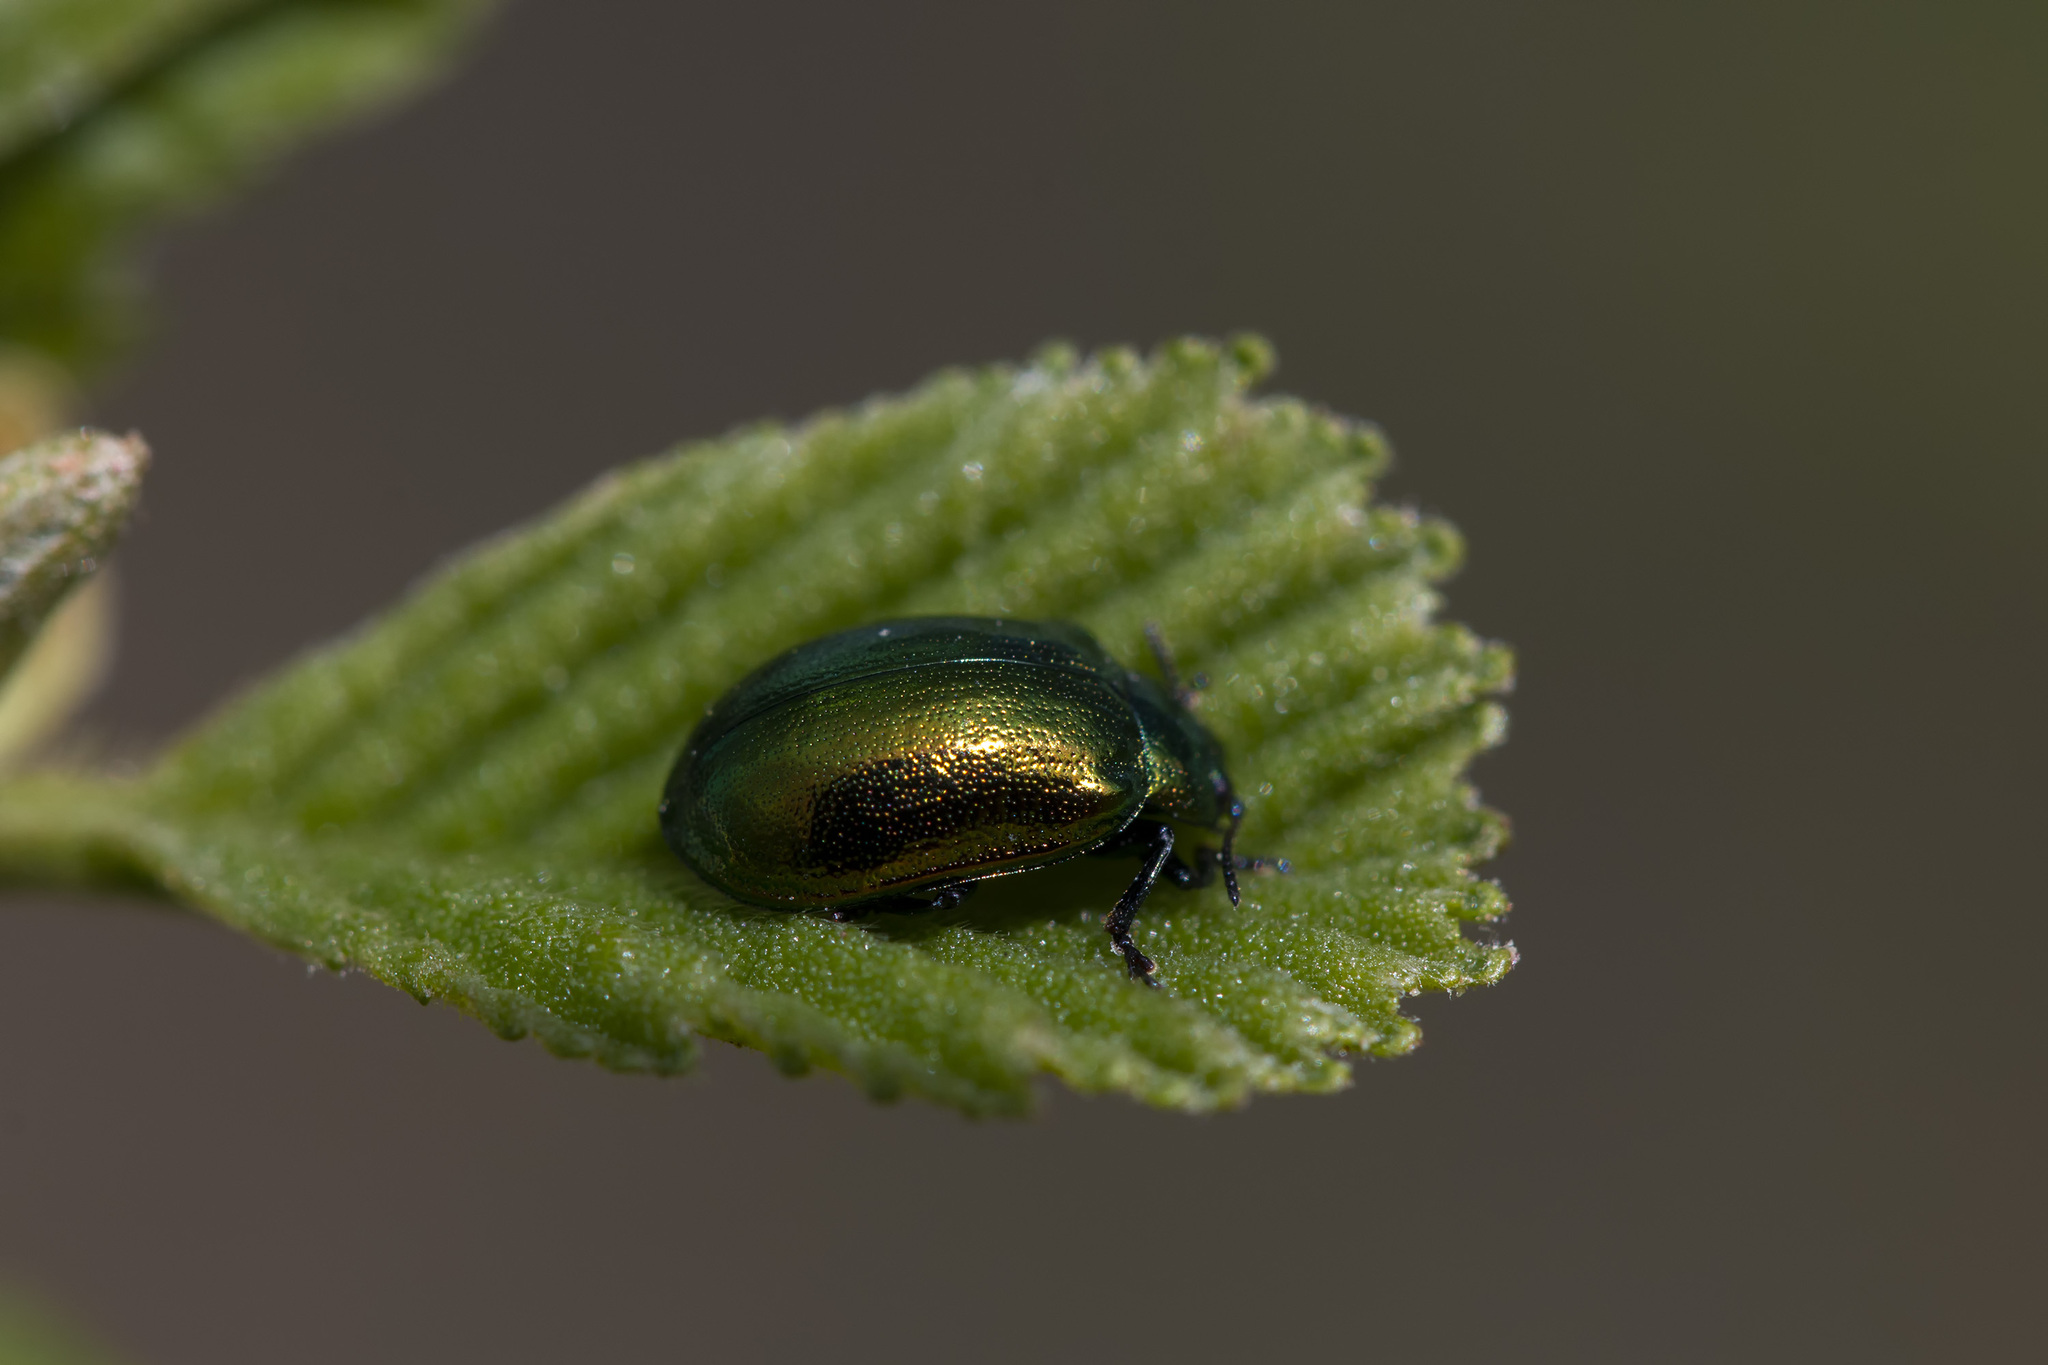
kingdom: Animalia
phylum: Arthropoda
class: Insecta
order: Coleoptera
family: Chrysomelidae
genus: Plagiosterna
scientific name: Plagiosterna aenea
